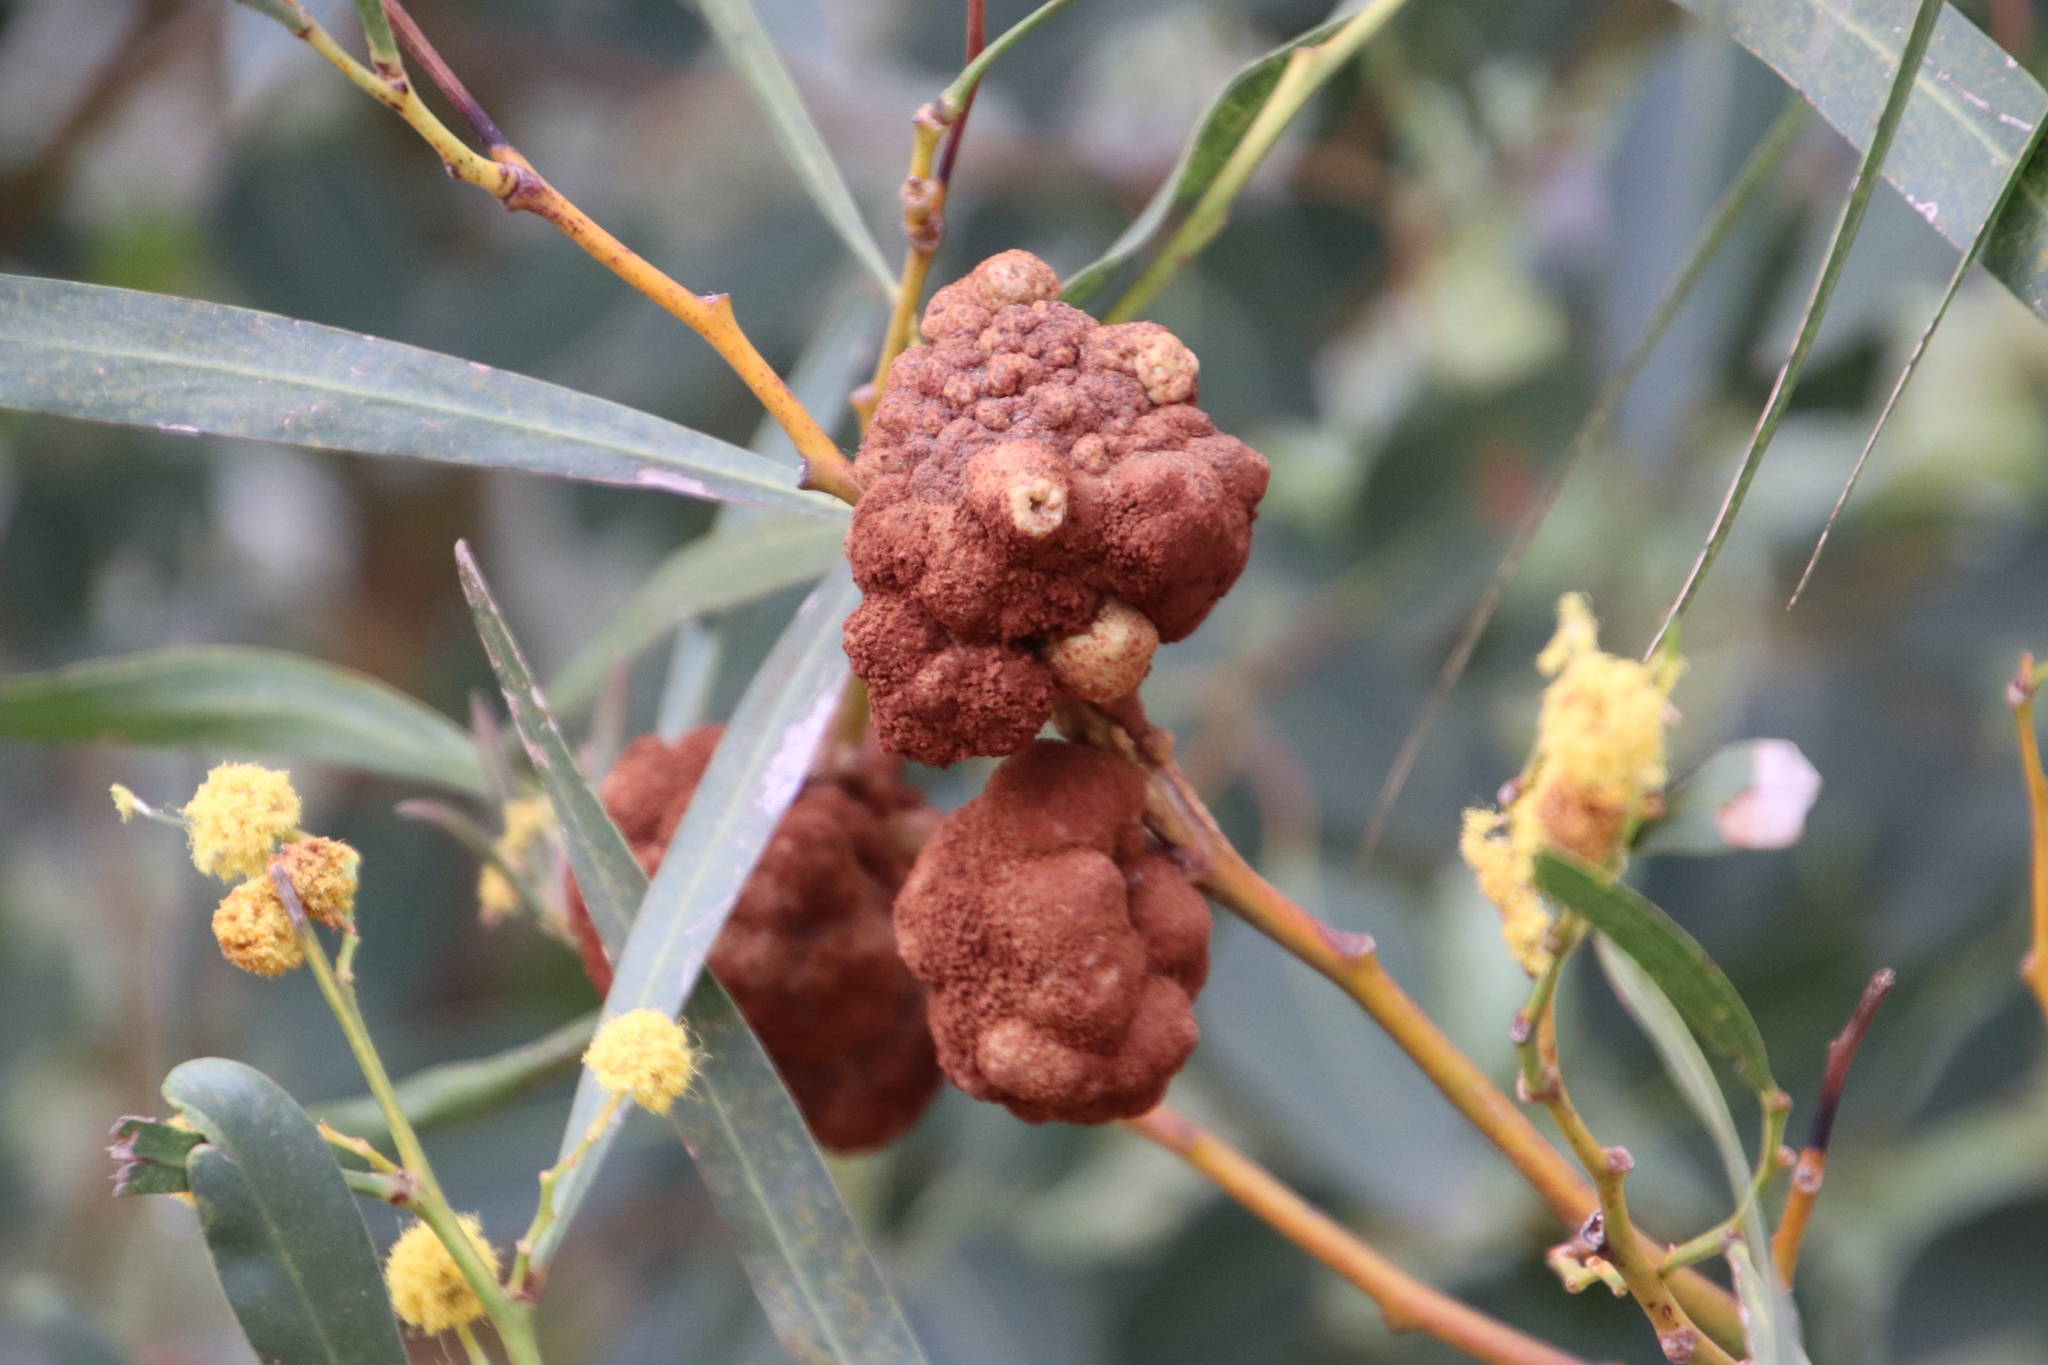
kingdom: Plantae
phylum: Tracheophyta
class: Magnoliopsida
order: Fabales
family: Fabaceae
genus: Acacia
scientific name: Acacia saligna
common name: Orange wattle
